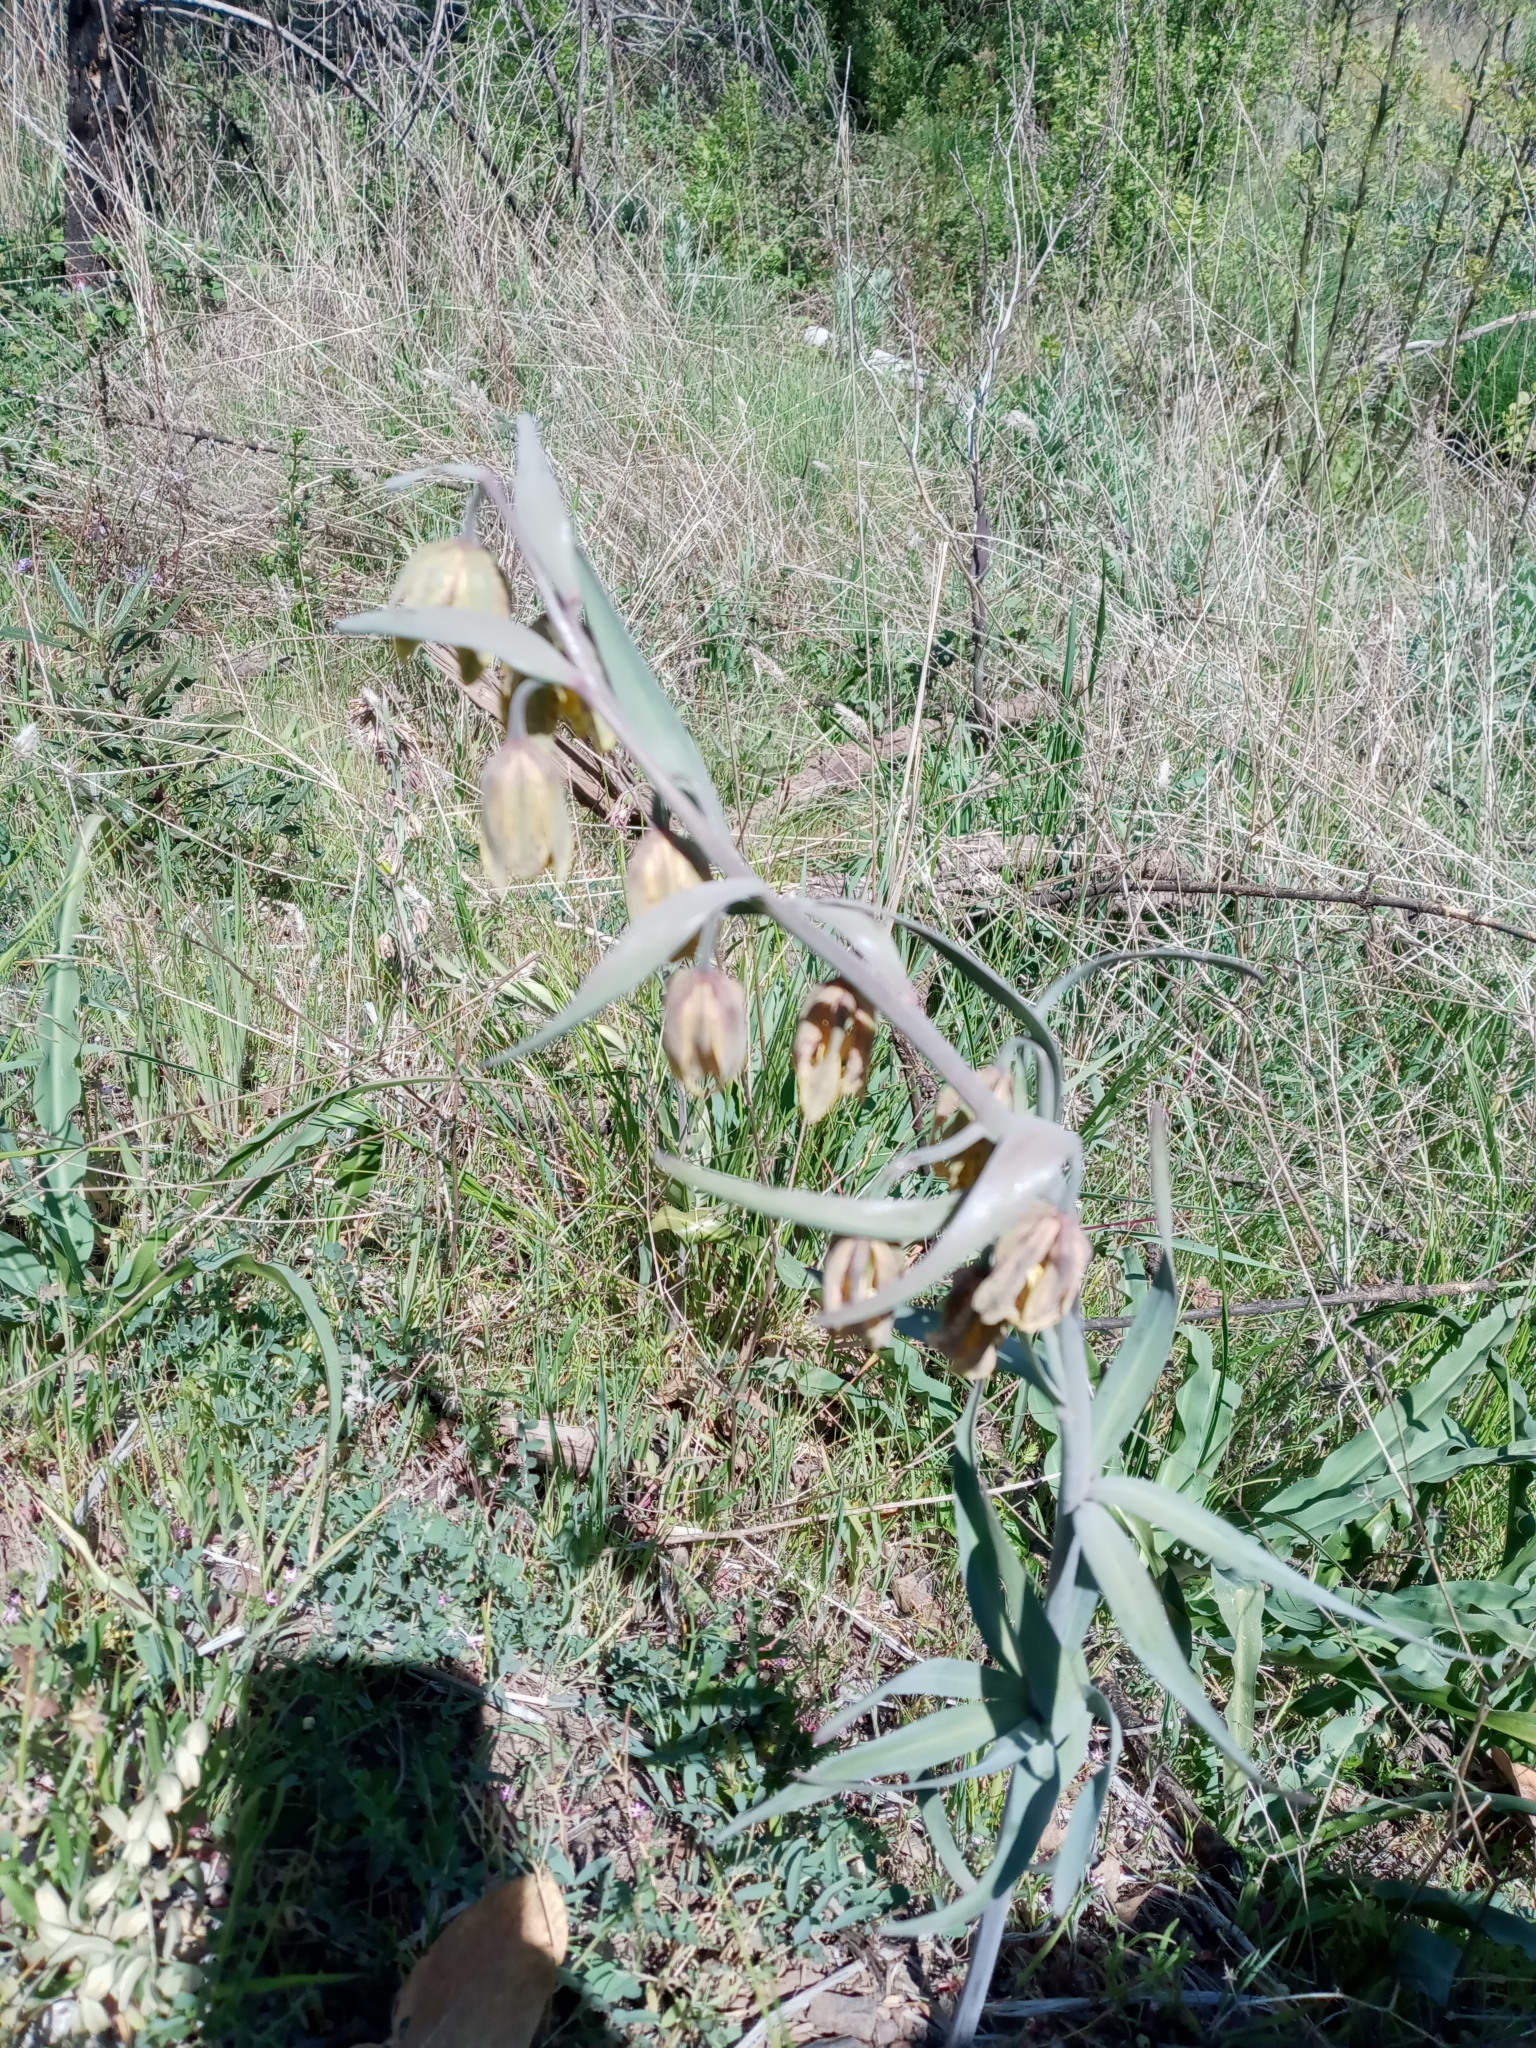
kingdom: Plantae
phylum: Tracheophyta
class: Liliopsida
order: Liliales
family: Liliaceae
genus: Fritillaria
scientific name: Fritillaria affinis
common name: Ojai fritillary
